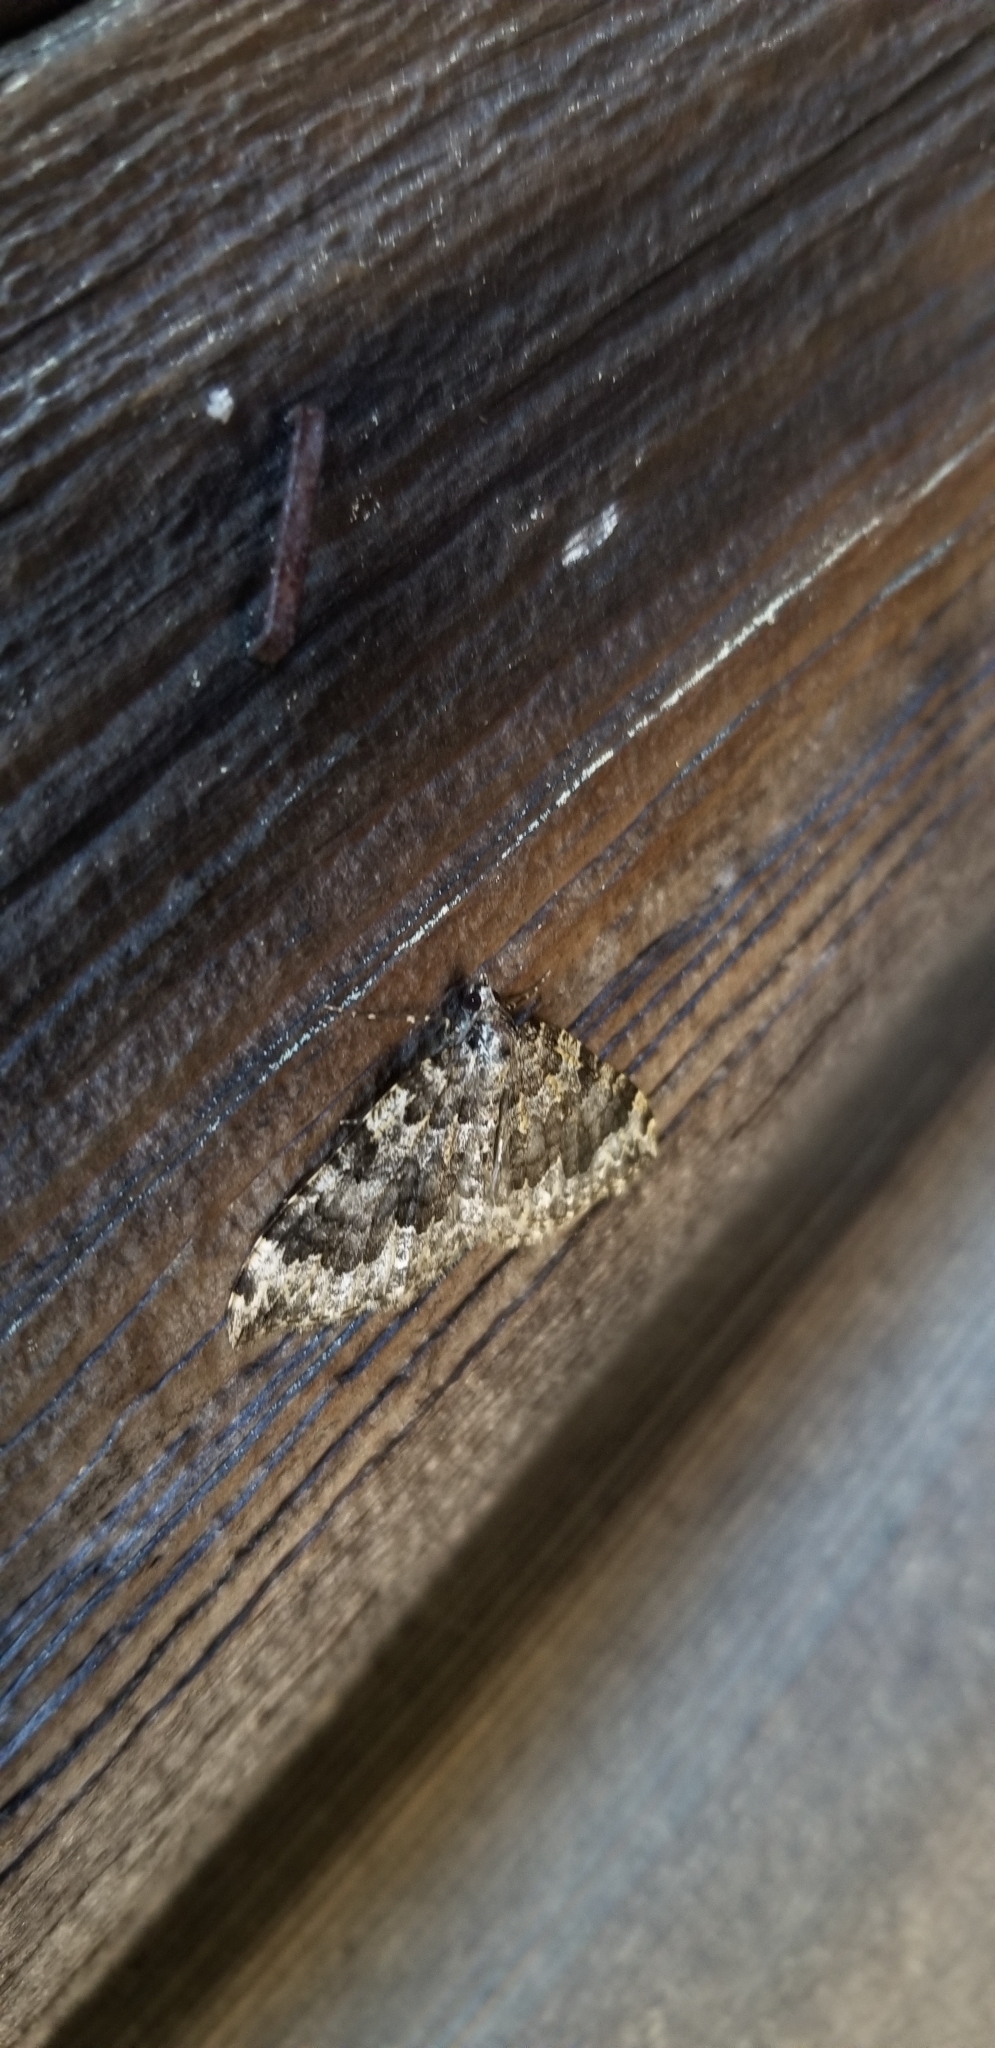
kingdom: Animalia
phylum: Arthropoda
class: Insecta
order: Lepidoptera
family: Geometridae
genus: Eustroma
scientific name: Eustroma semiatrata
